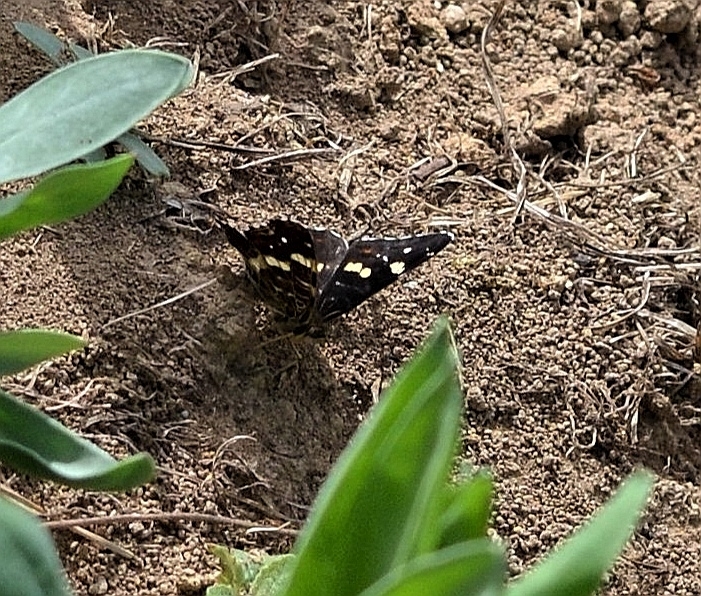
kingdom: Animalia
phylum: Arthropoda
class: Insecta
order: Lepidoptera
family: Nymphalidae
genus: Araschnia
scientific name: Araschnia levana
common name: Map butterfly
